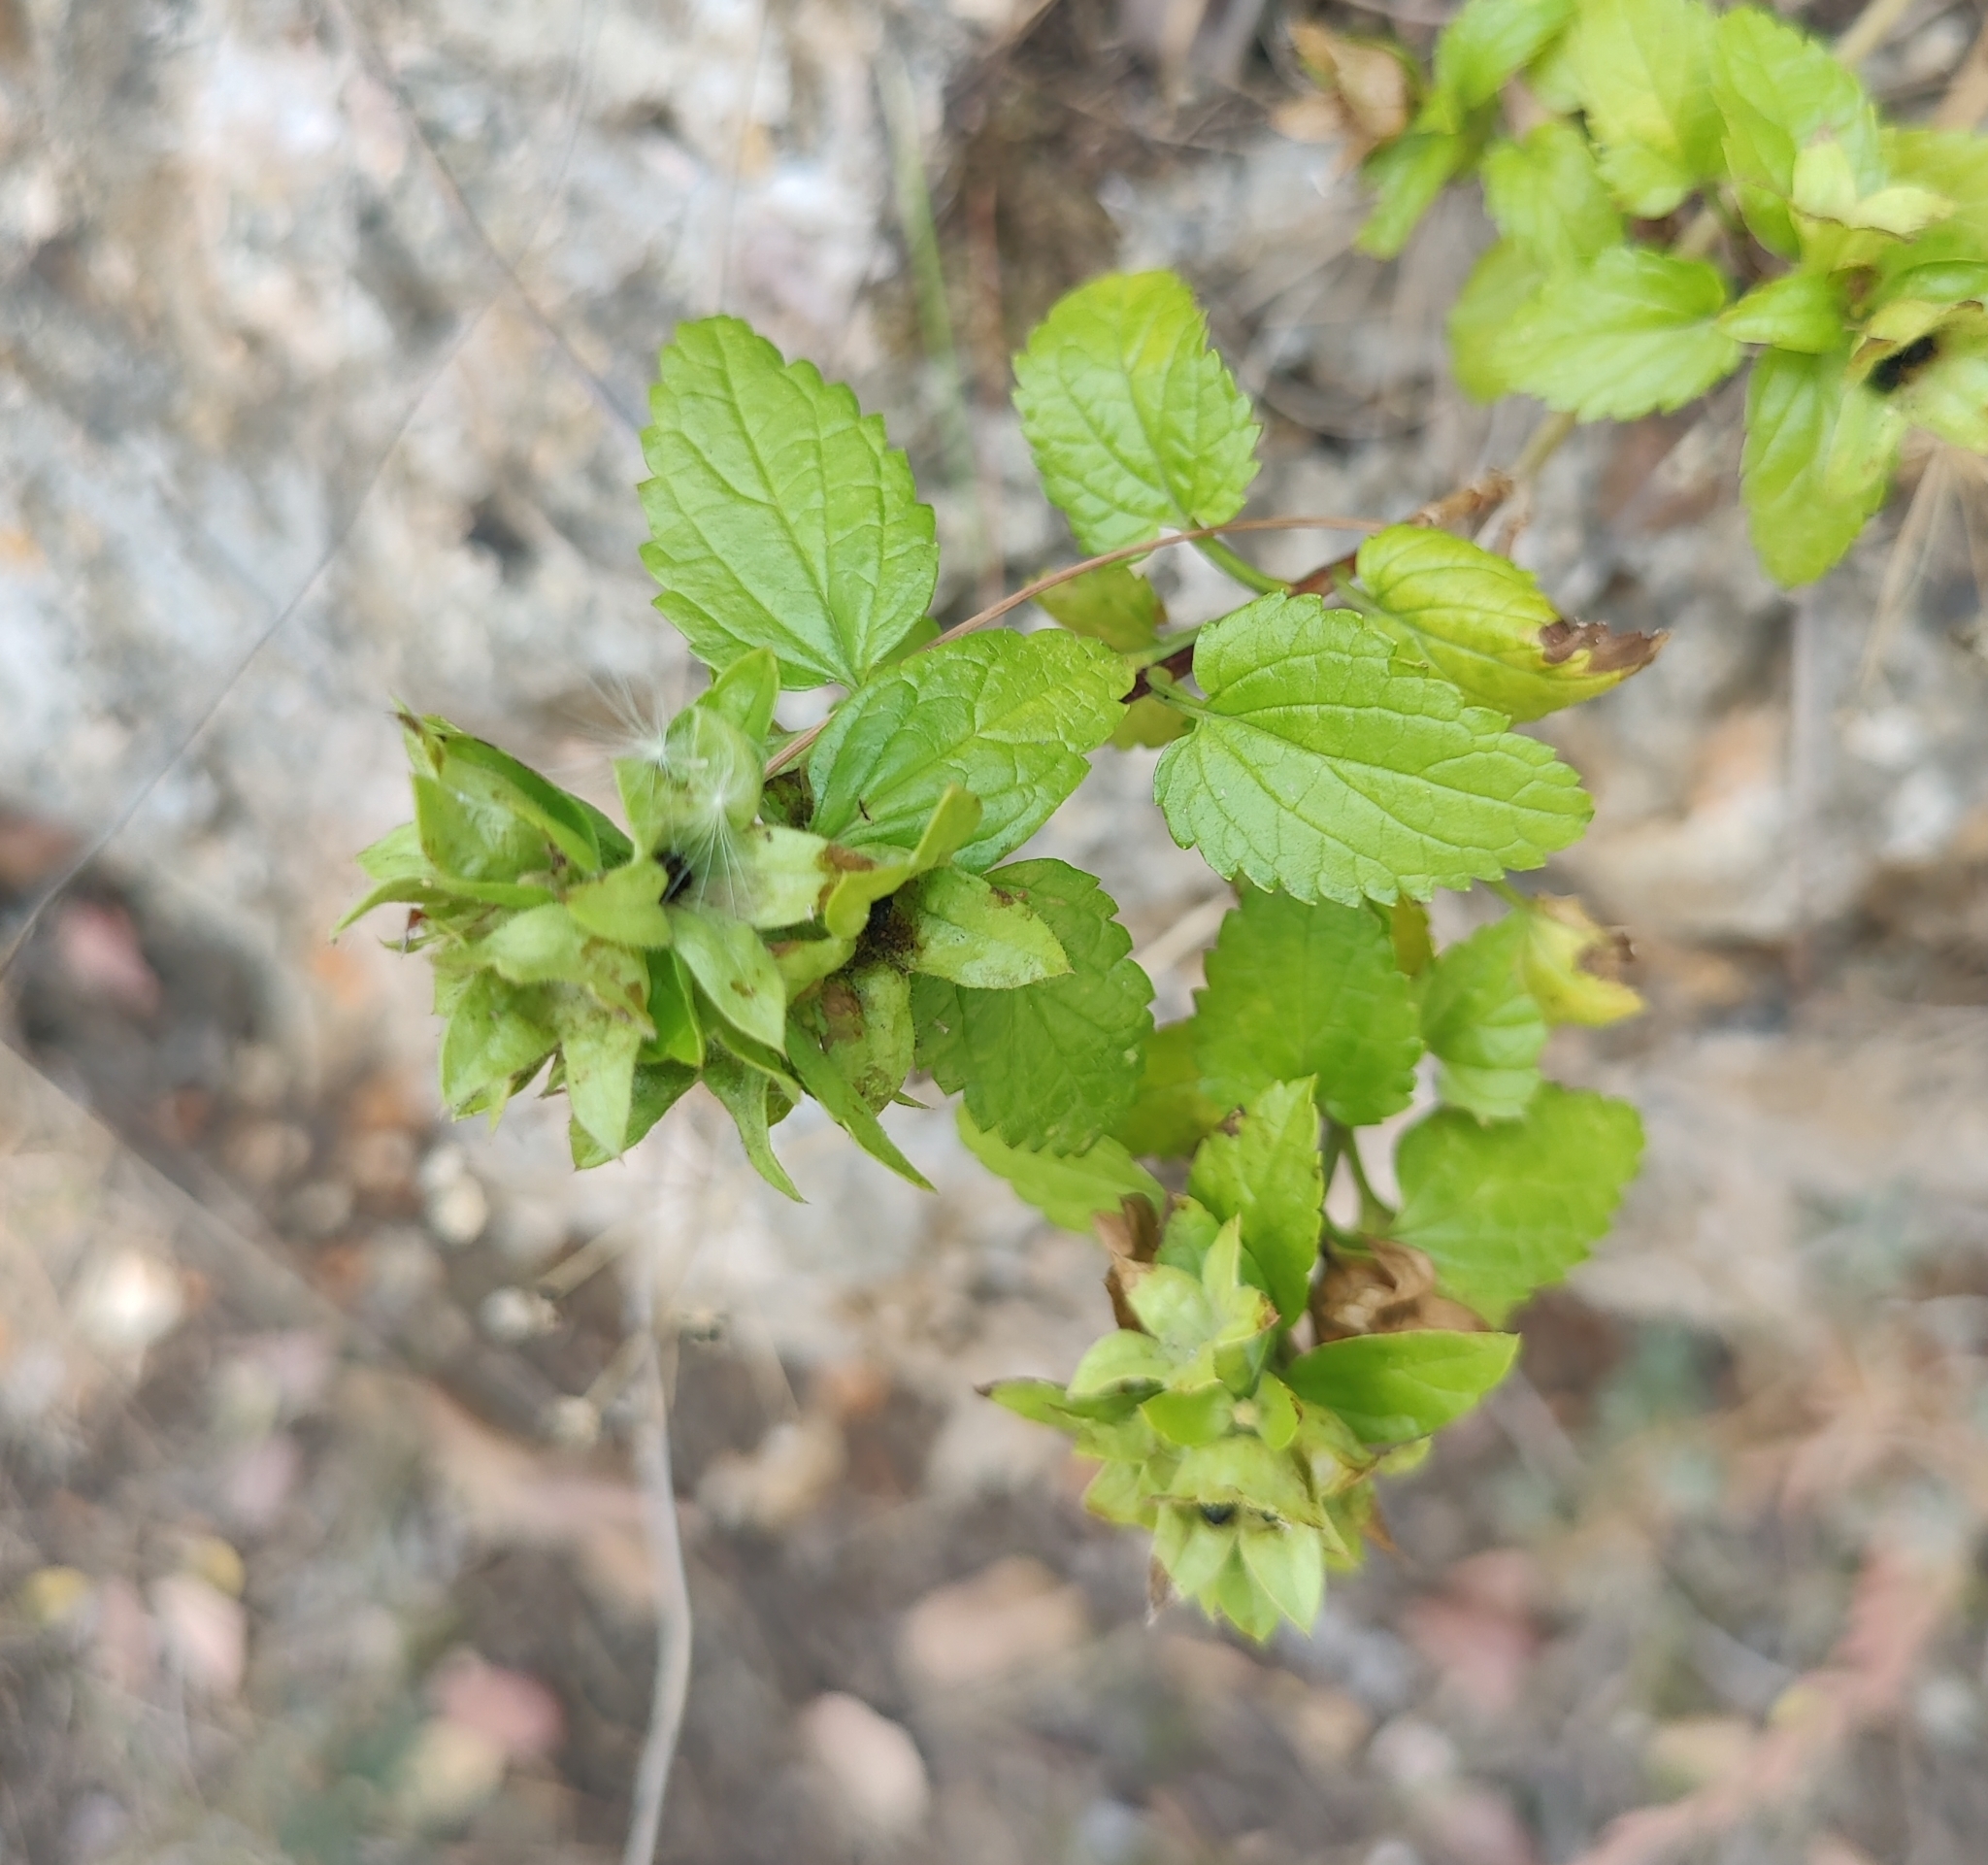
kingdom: Plantae
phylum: Tracheophyta
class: Magnoliopsida
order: Lamiales
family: Lamiaceae
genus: Prasium
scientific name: Prasium majus
